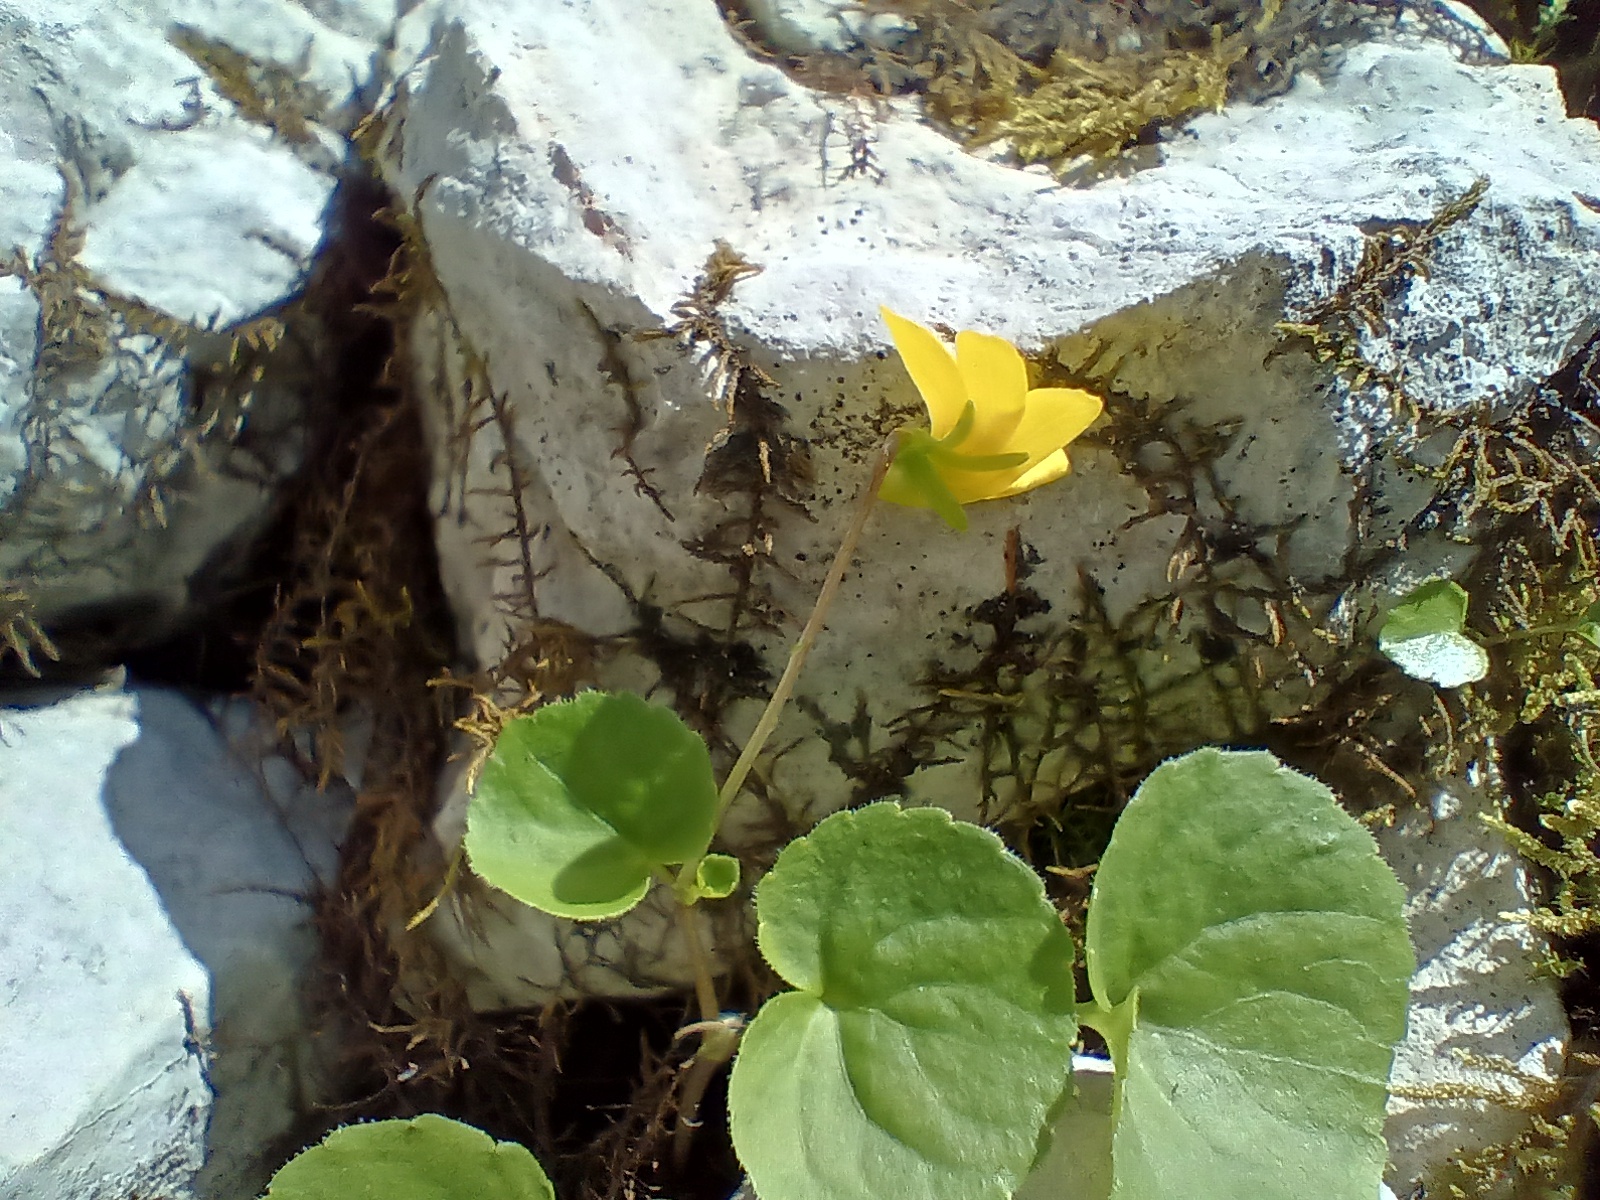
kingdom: Plantae
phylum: Tracheophyta
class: Magnoliopsida
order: Malpighiales
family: Violaceae
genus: Viola
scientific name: Viola biflora
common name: Alpine yellow violet
